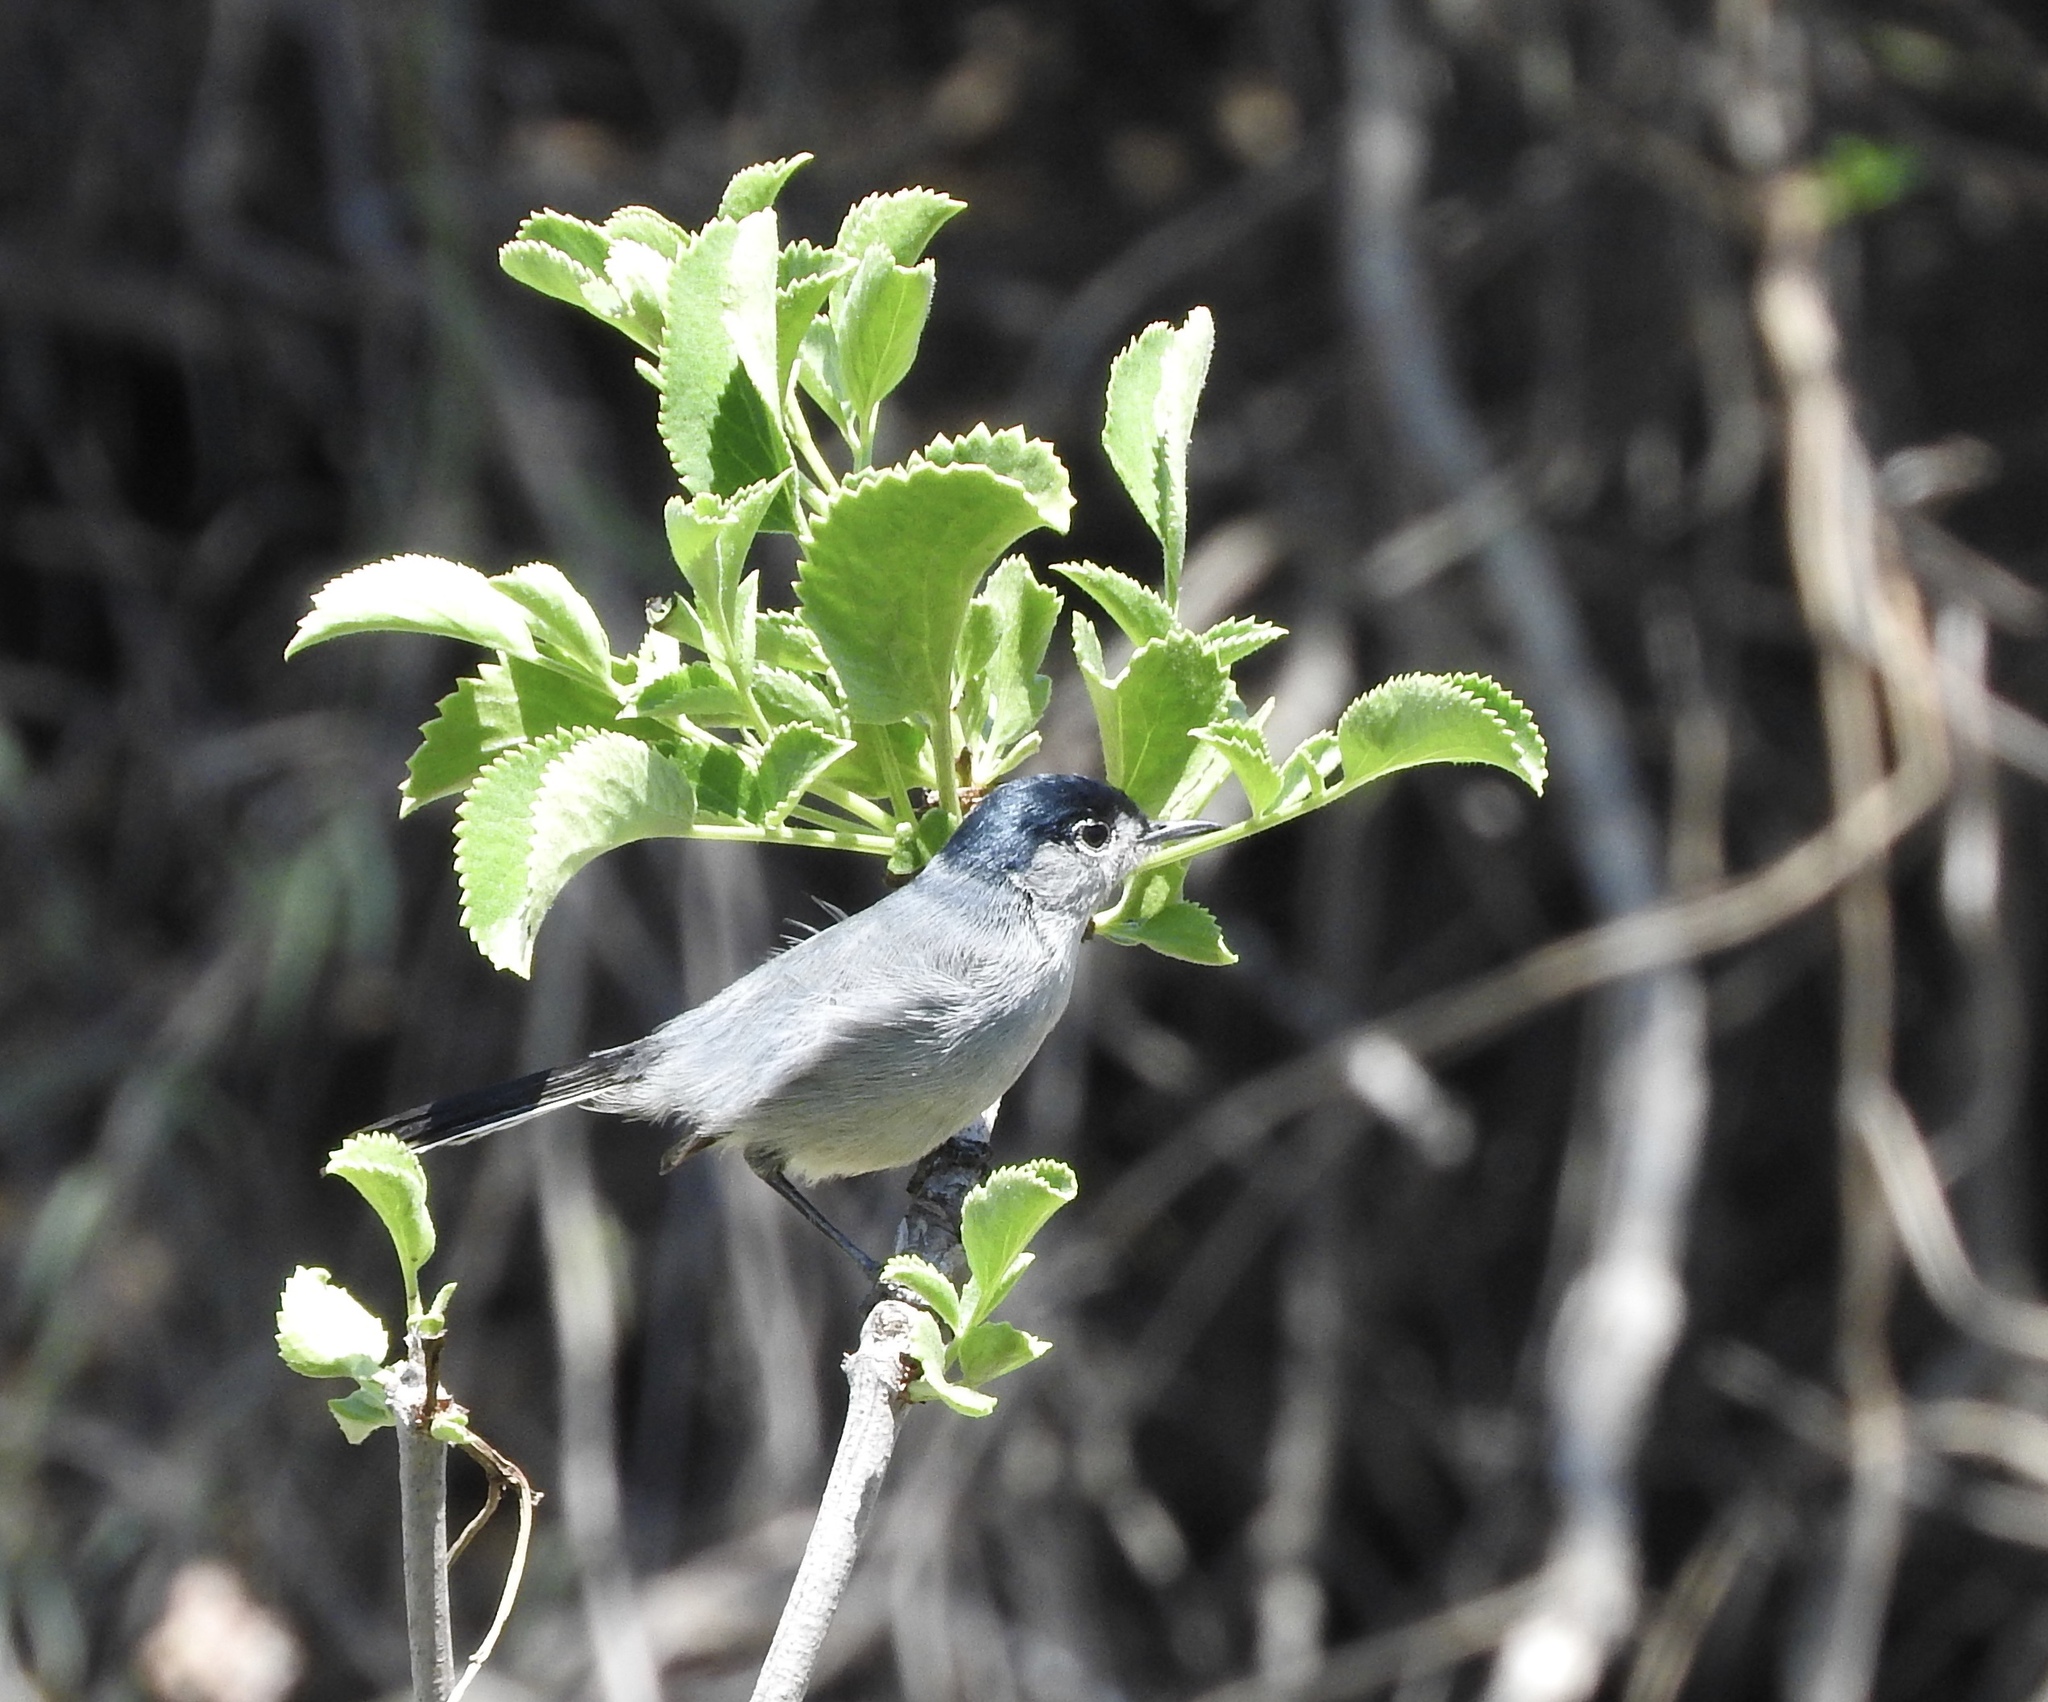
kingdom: Animalia
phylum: Chordata
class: Aves
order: Passeriformes
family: Polioptilidae
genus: Polioptila
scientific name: Polioptila californica
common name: California gnatcatcher
